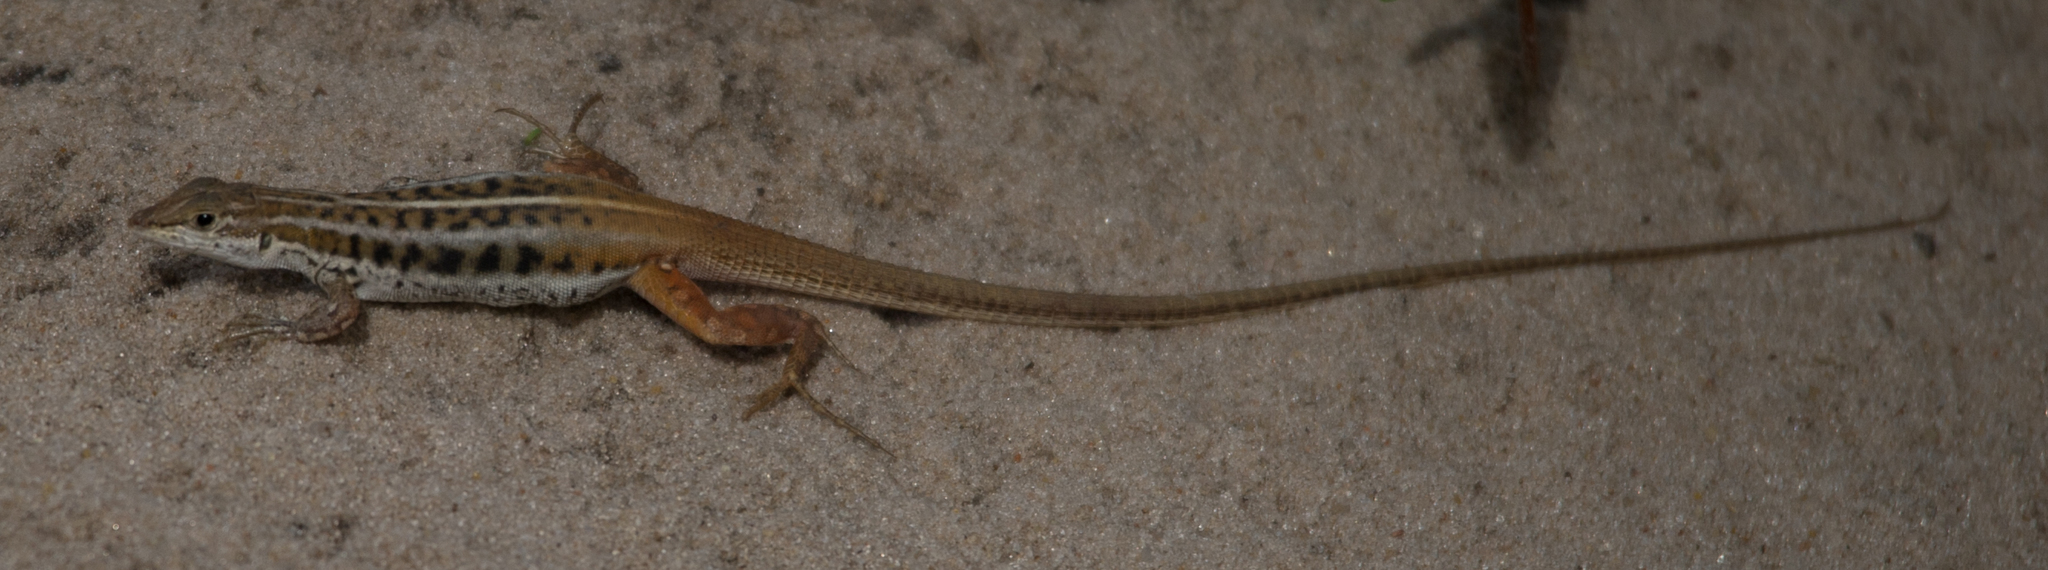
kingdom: Animalia
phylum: Chordata
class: Squamata
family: Lacertidae
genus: Heliobolus
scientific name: Heliobolus lugubris
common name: Bushveld lizard
